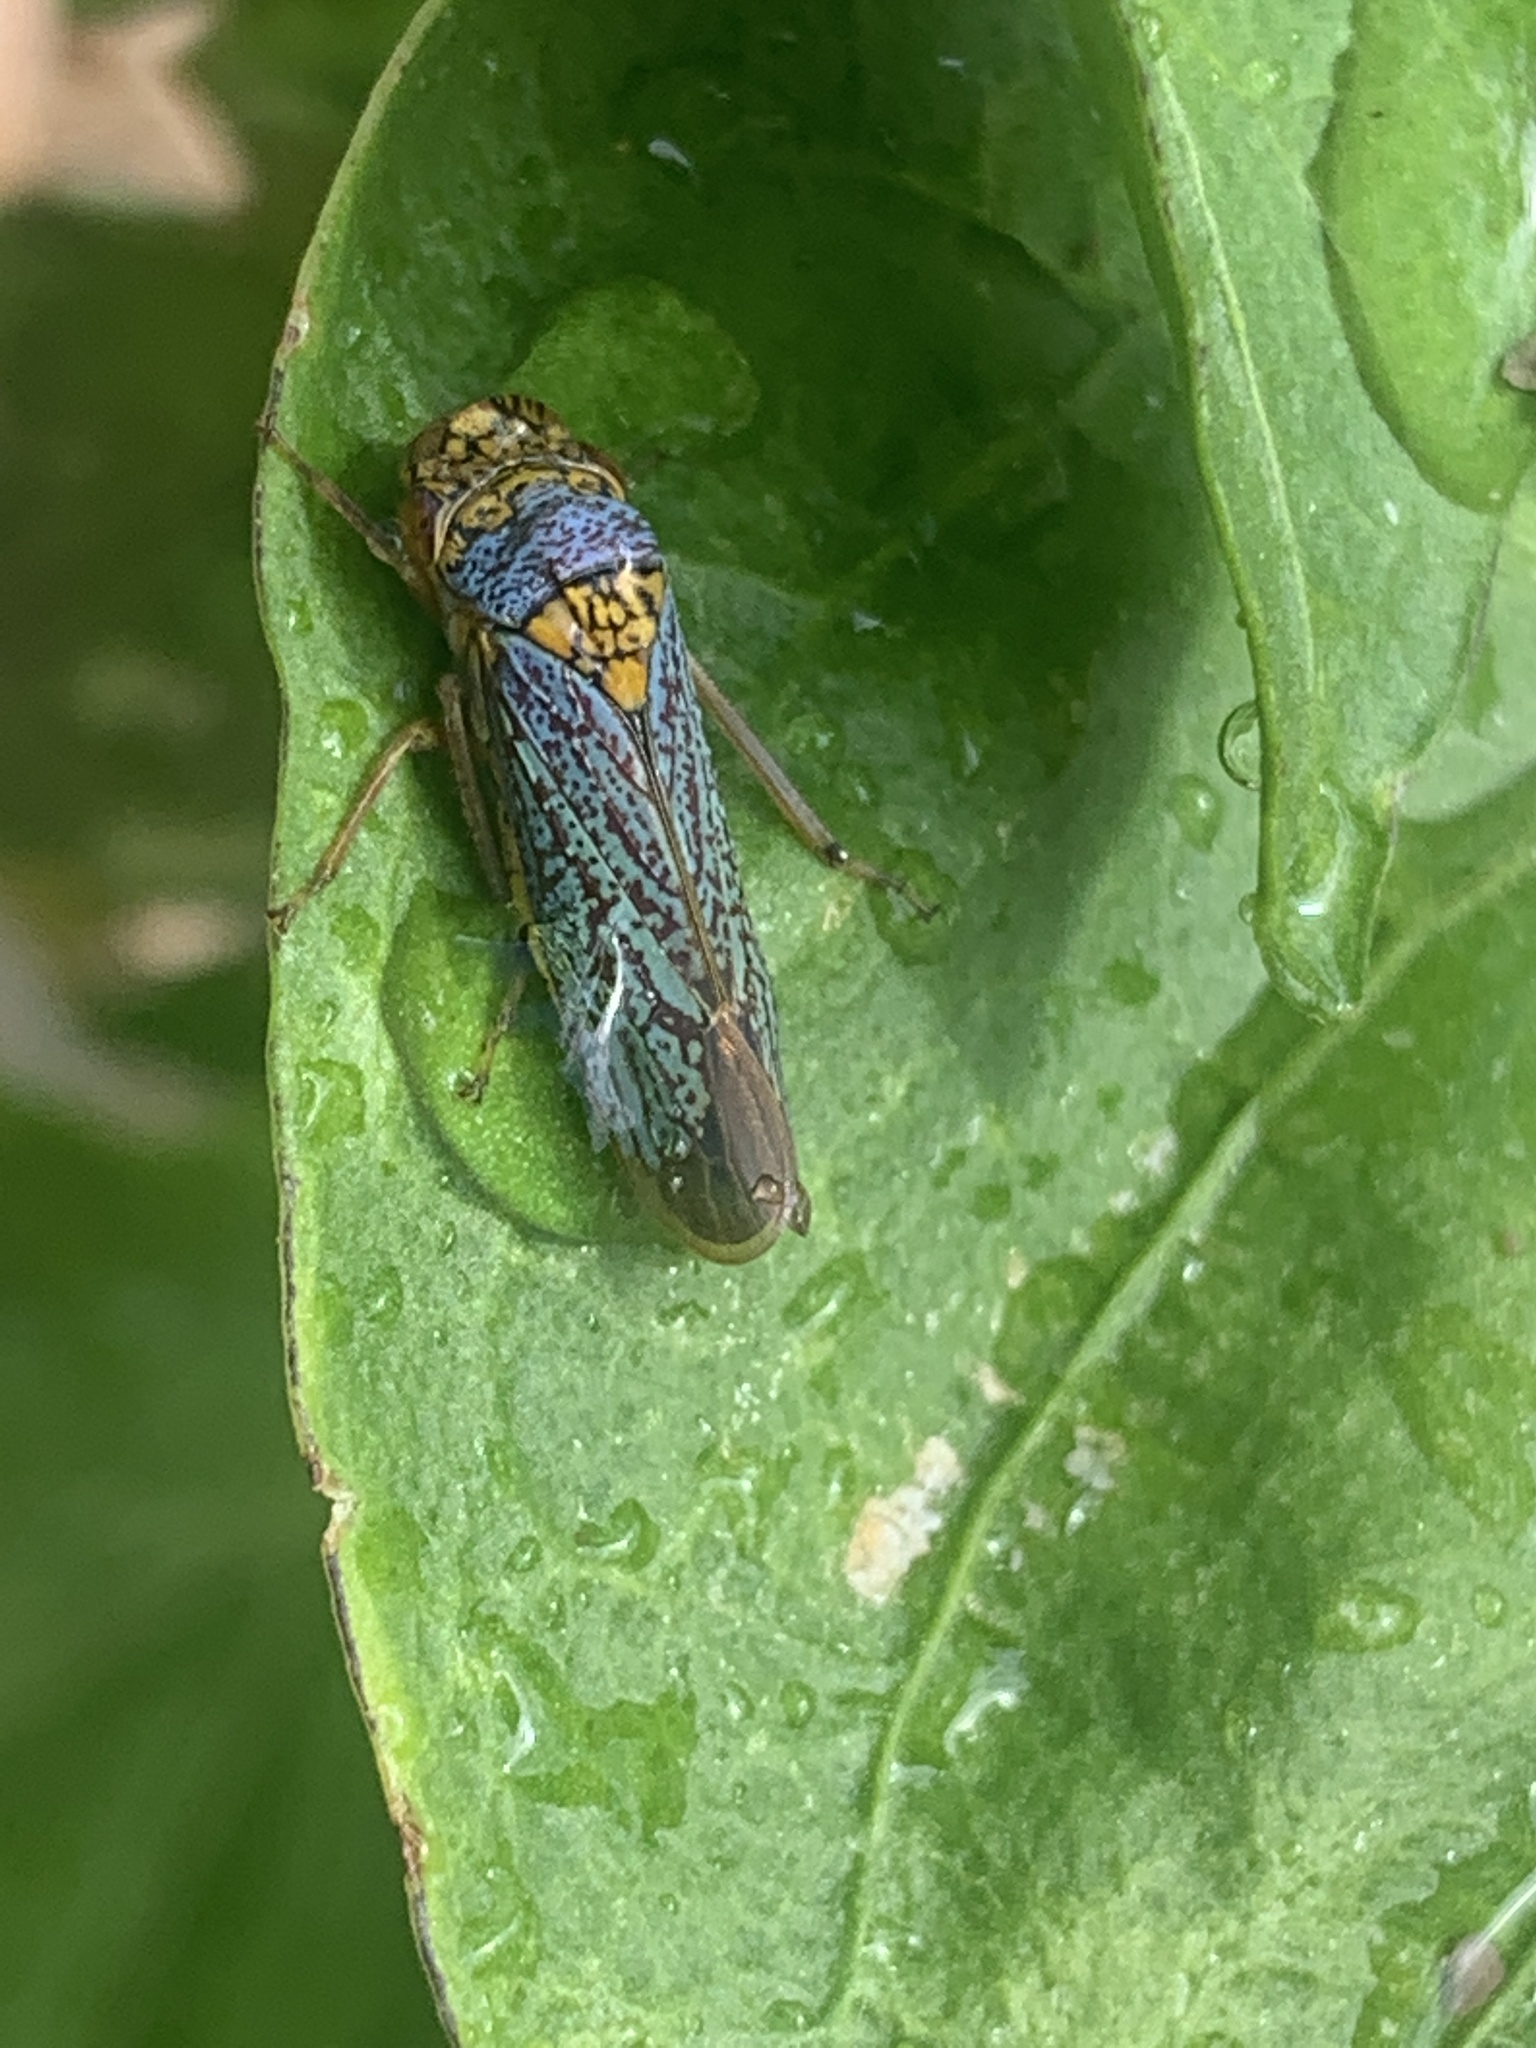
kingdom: Animalia
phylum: Arthropoda
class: Insecta
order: Hemiptera
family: Cicadellidae
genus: Oncometopia
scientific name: Oncometopia orbona
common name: Broad-headed sharpshooter
